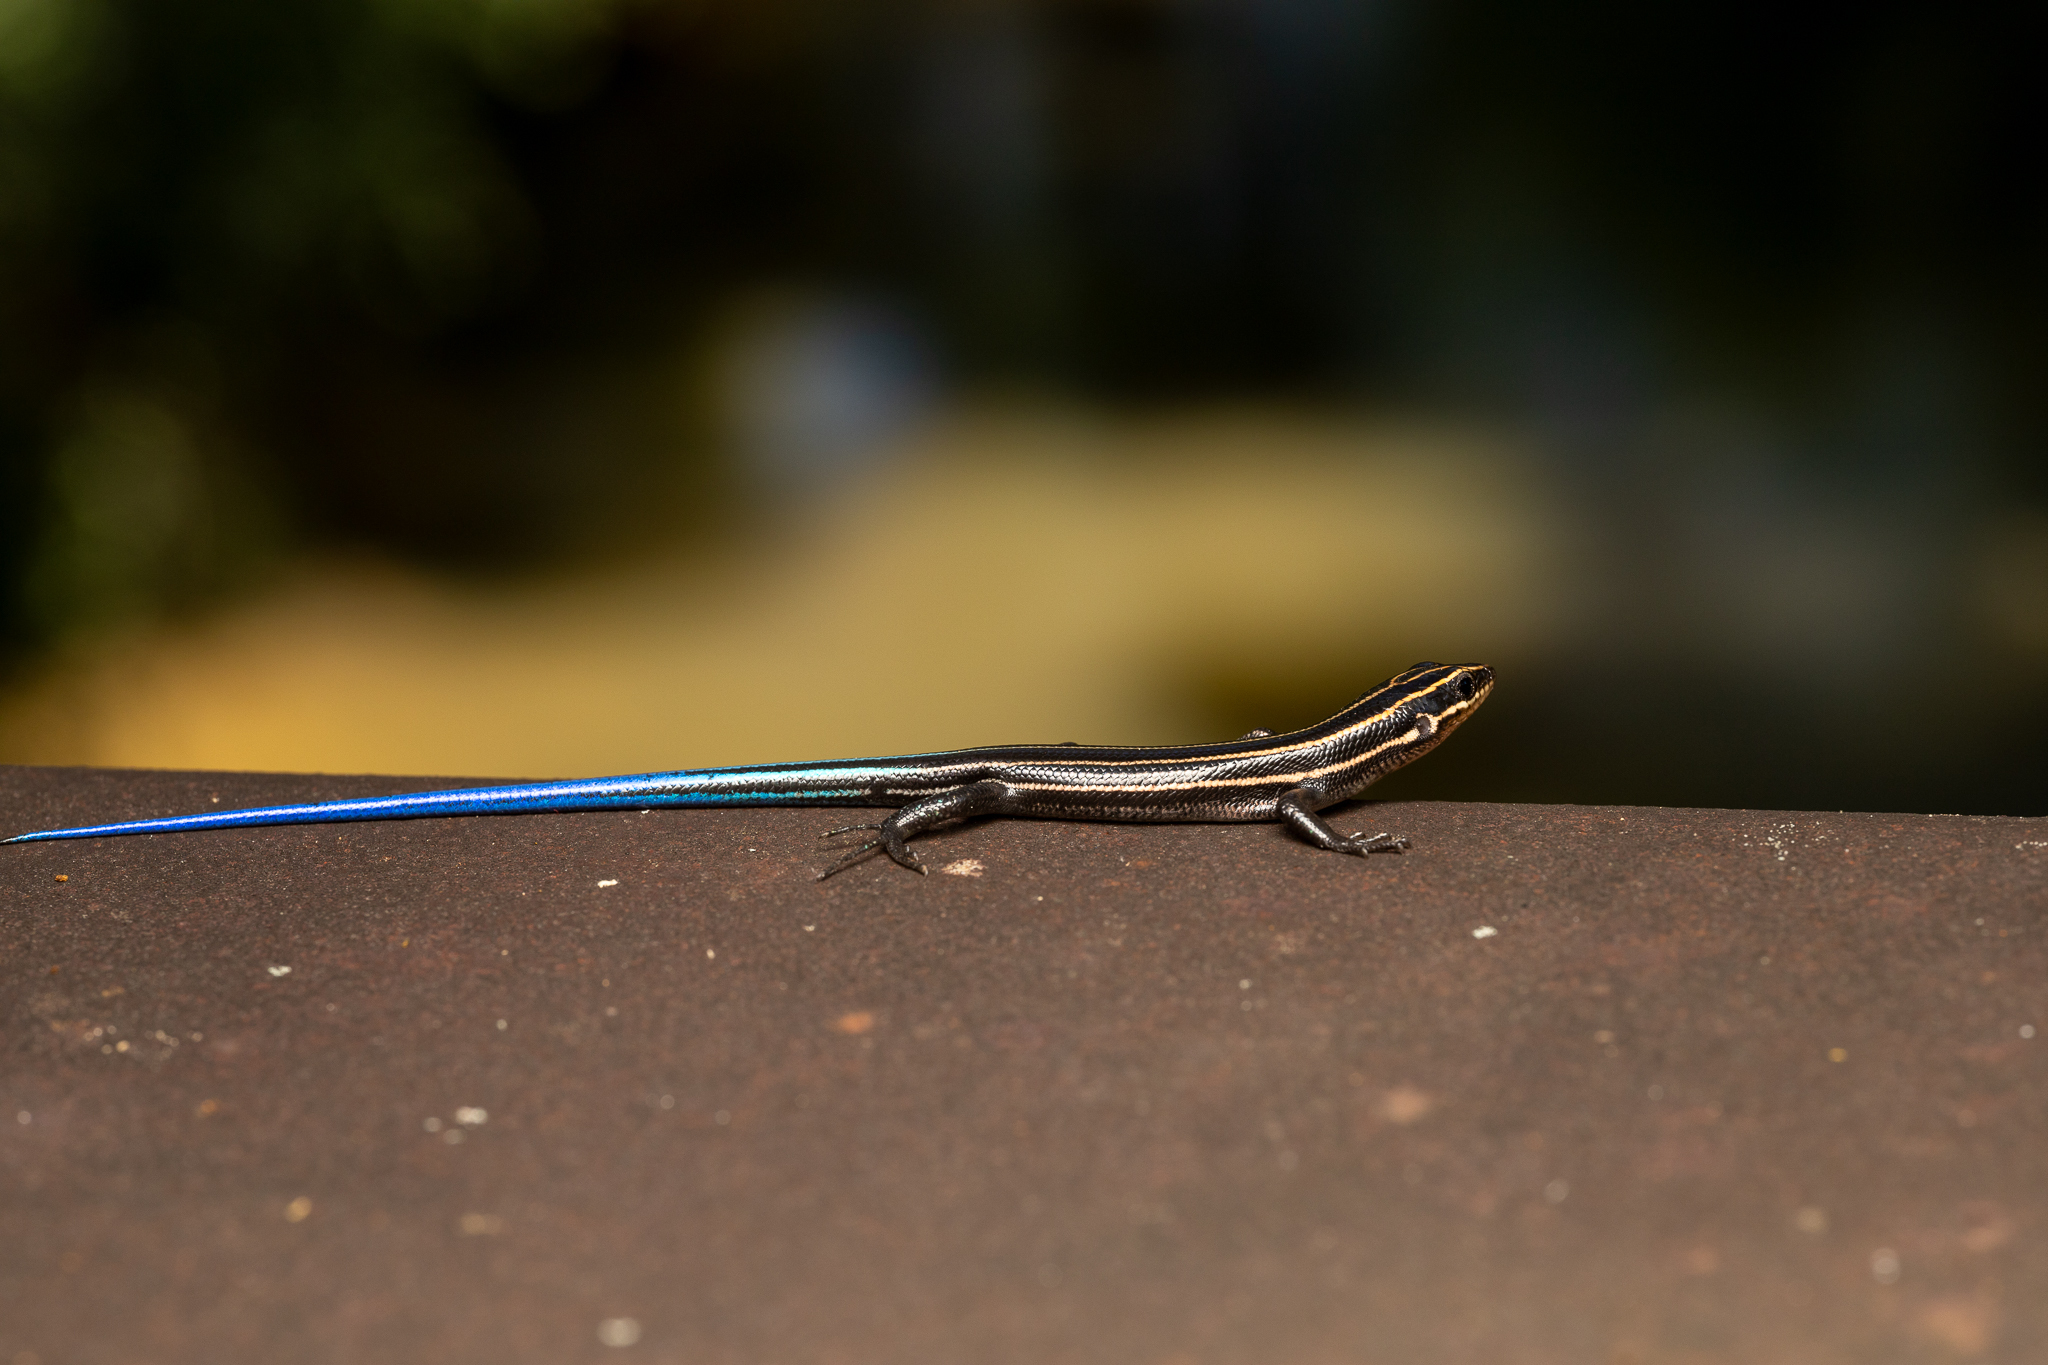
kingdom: Animalia
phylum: Chordata
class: Squamata
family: Scincidae
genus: Plestiodon
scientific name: Plestiodon fasciatus
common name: Five-lined skink
